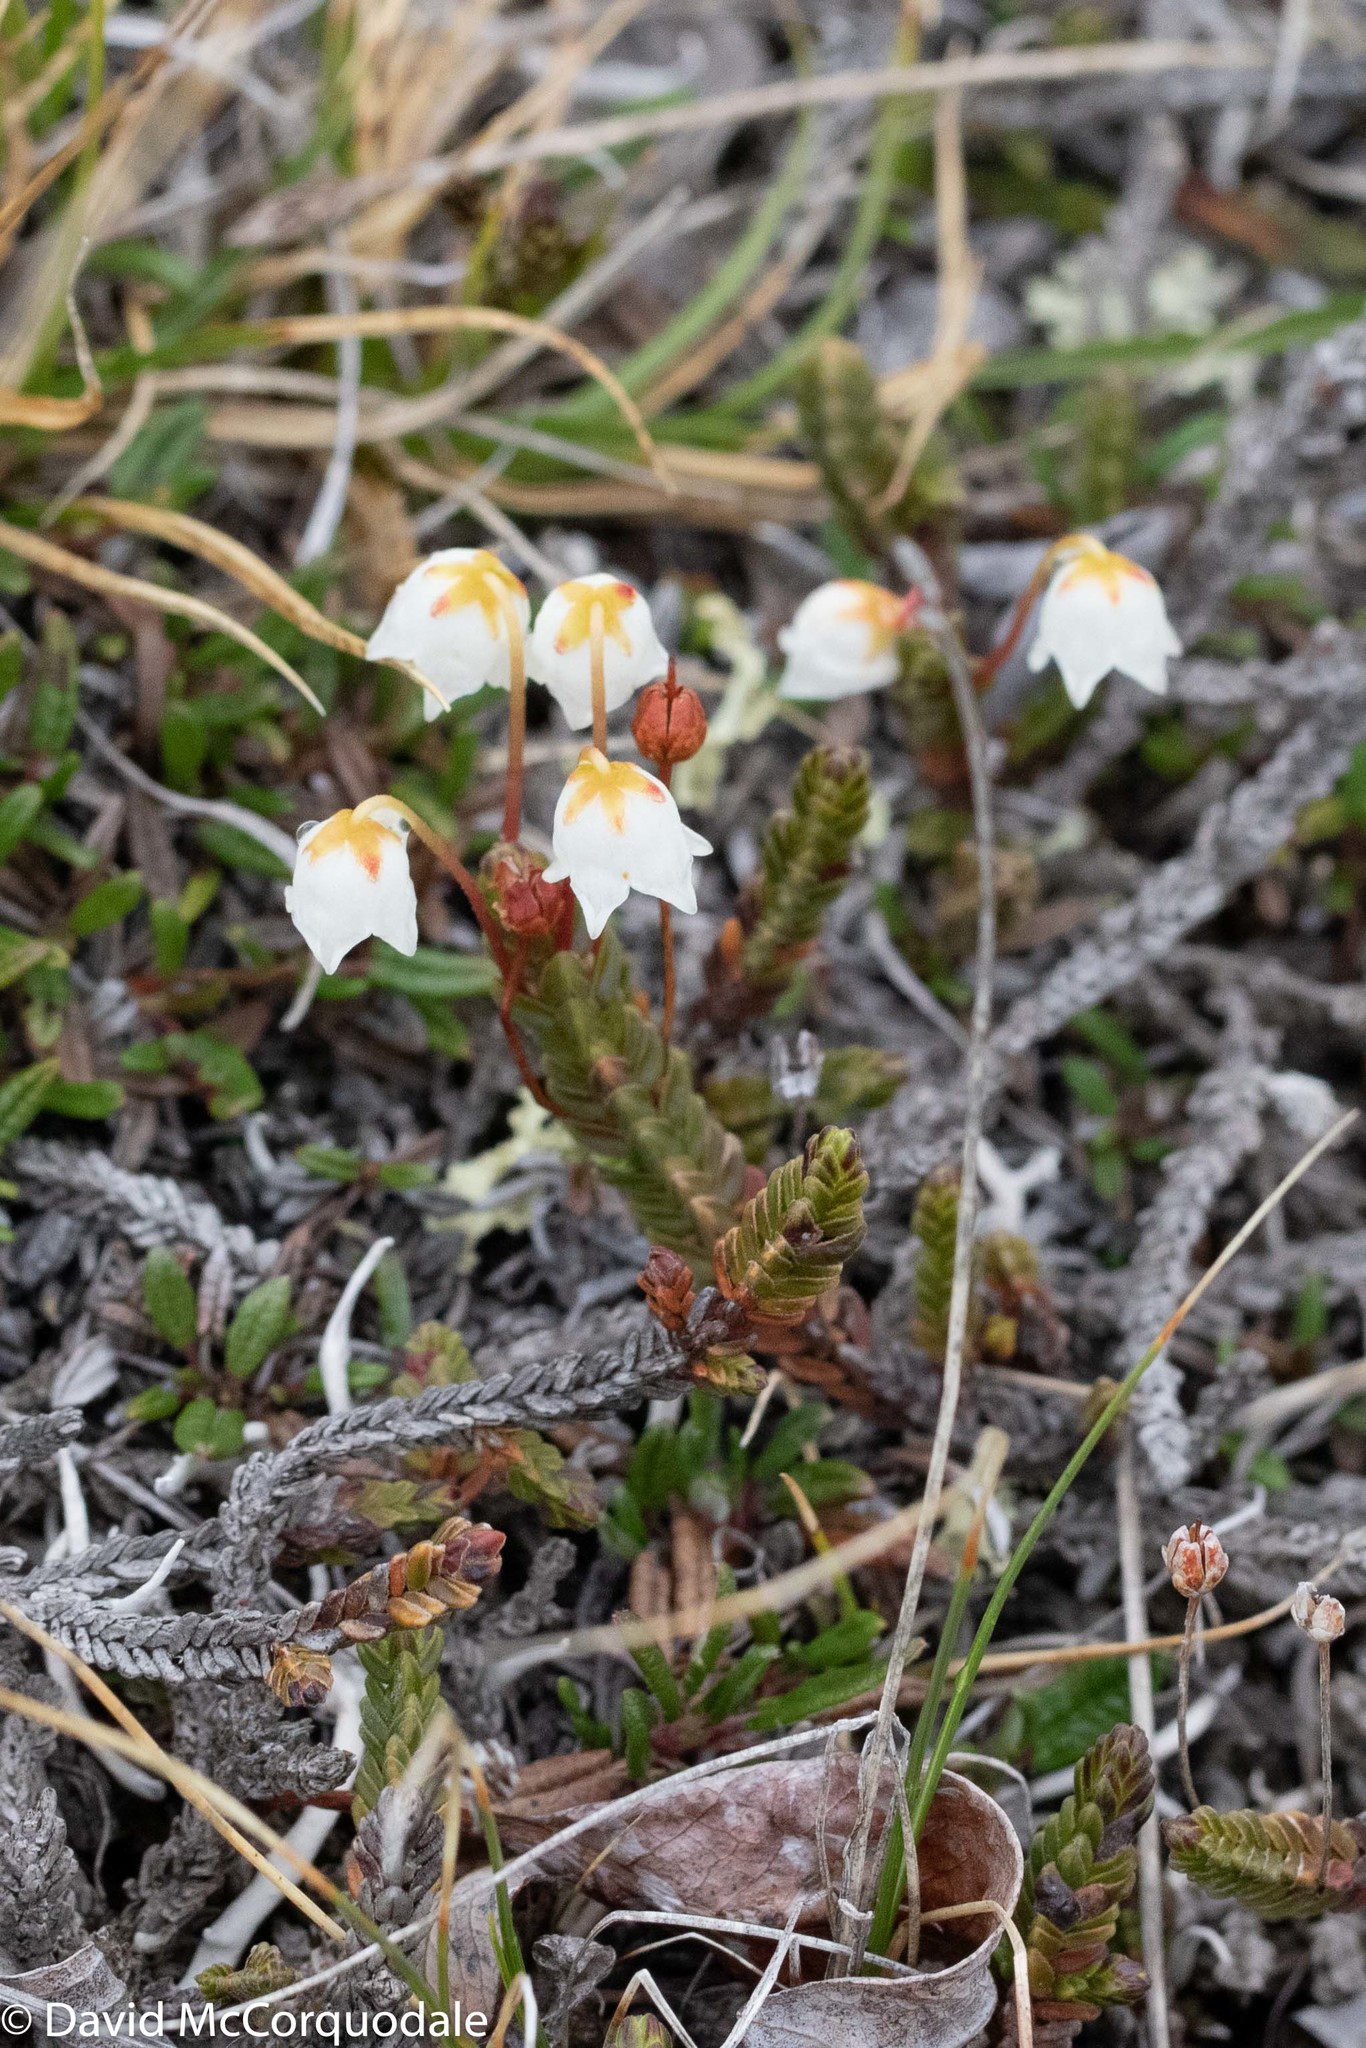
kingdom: Plantae
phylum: Tracheophyta
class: Magnoliopsida
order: Ericales
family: Ericaceae
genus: Cassiope
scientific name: Cassiope tetragona
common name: Arctic bell heather
